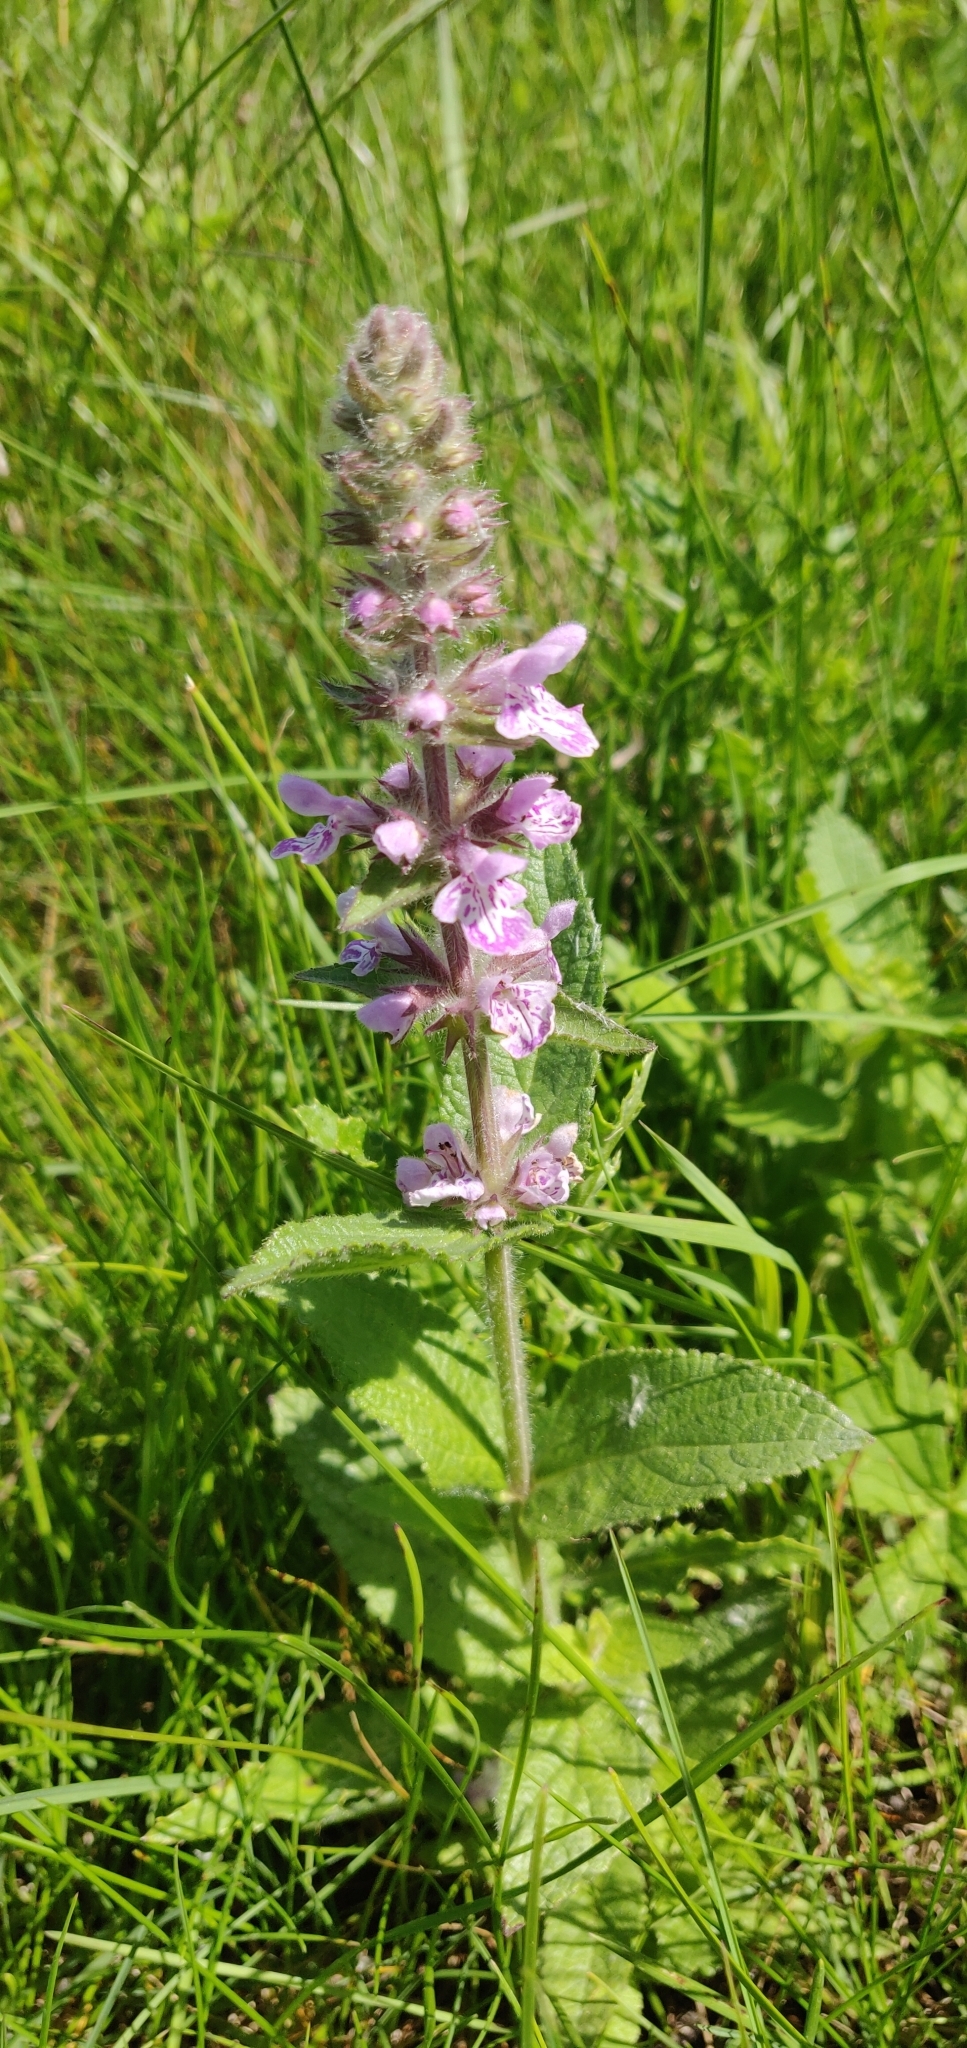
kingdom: Plantae
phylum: Tracheophyta
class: Magnoliopsida
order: Lamiales
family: Lamiaceae
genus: Stachys
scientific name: Stachys pilosa
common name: Hairy hedge-nettle
